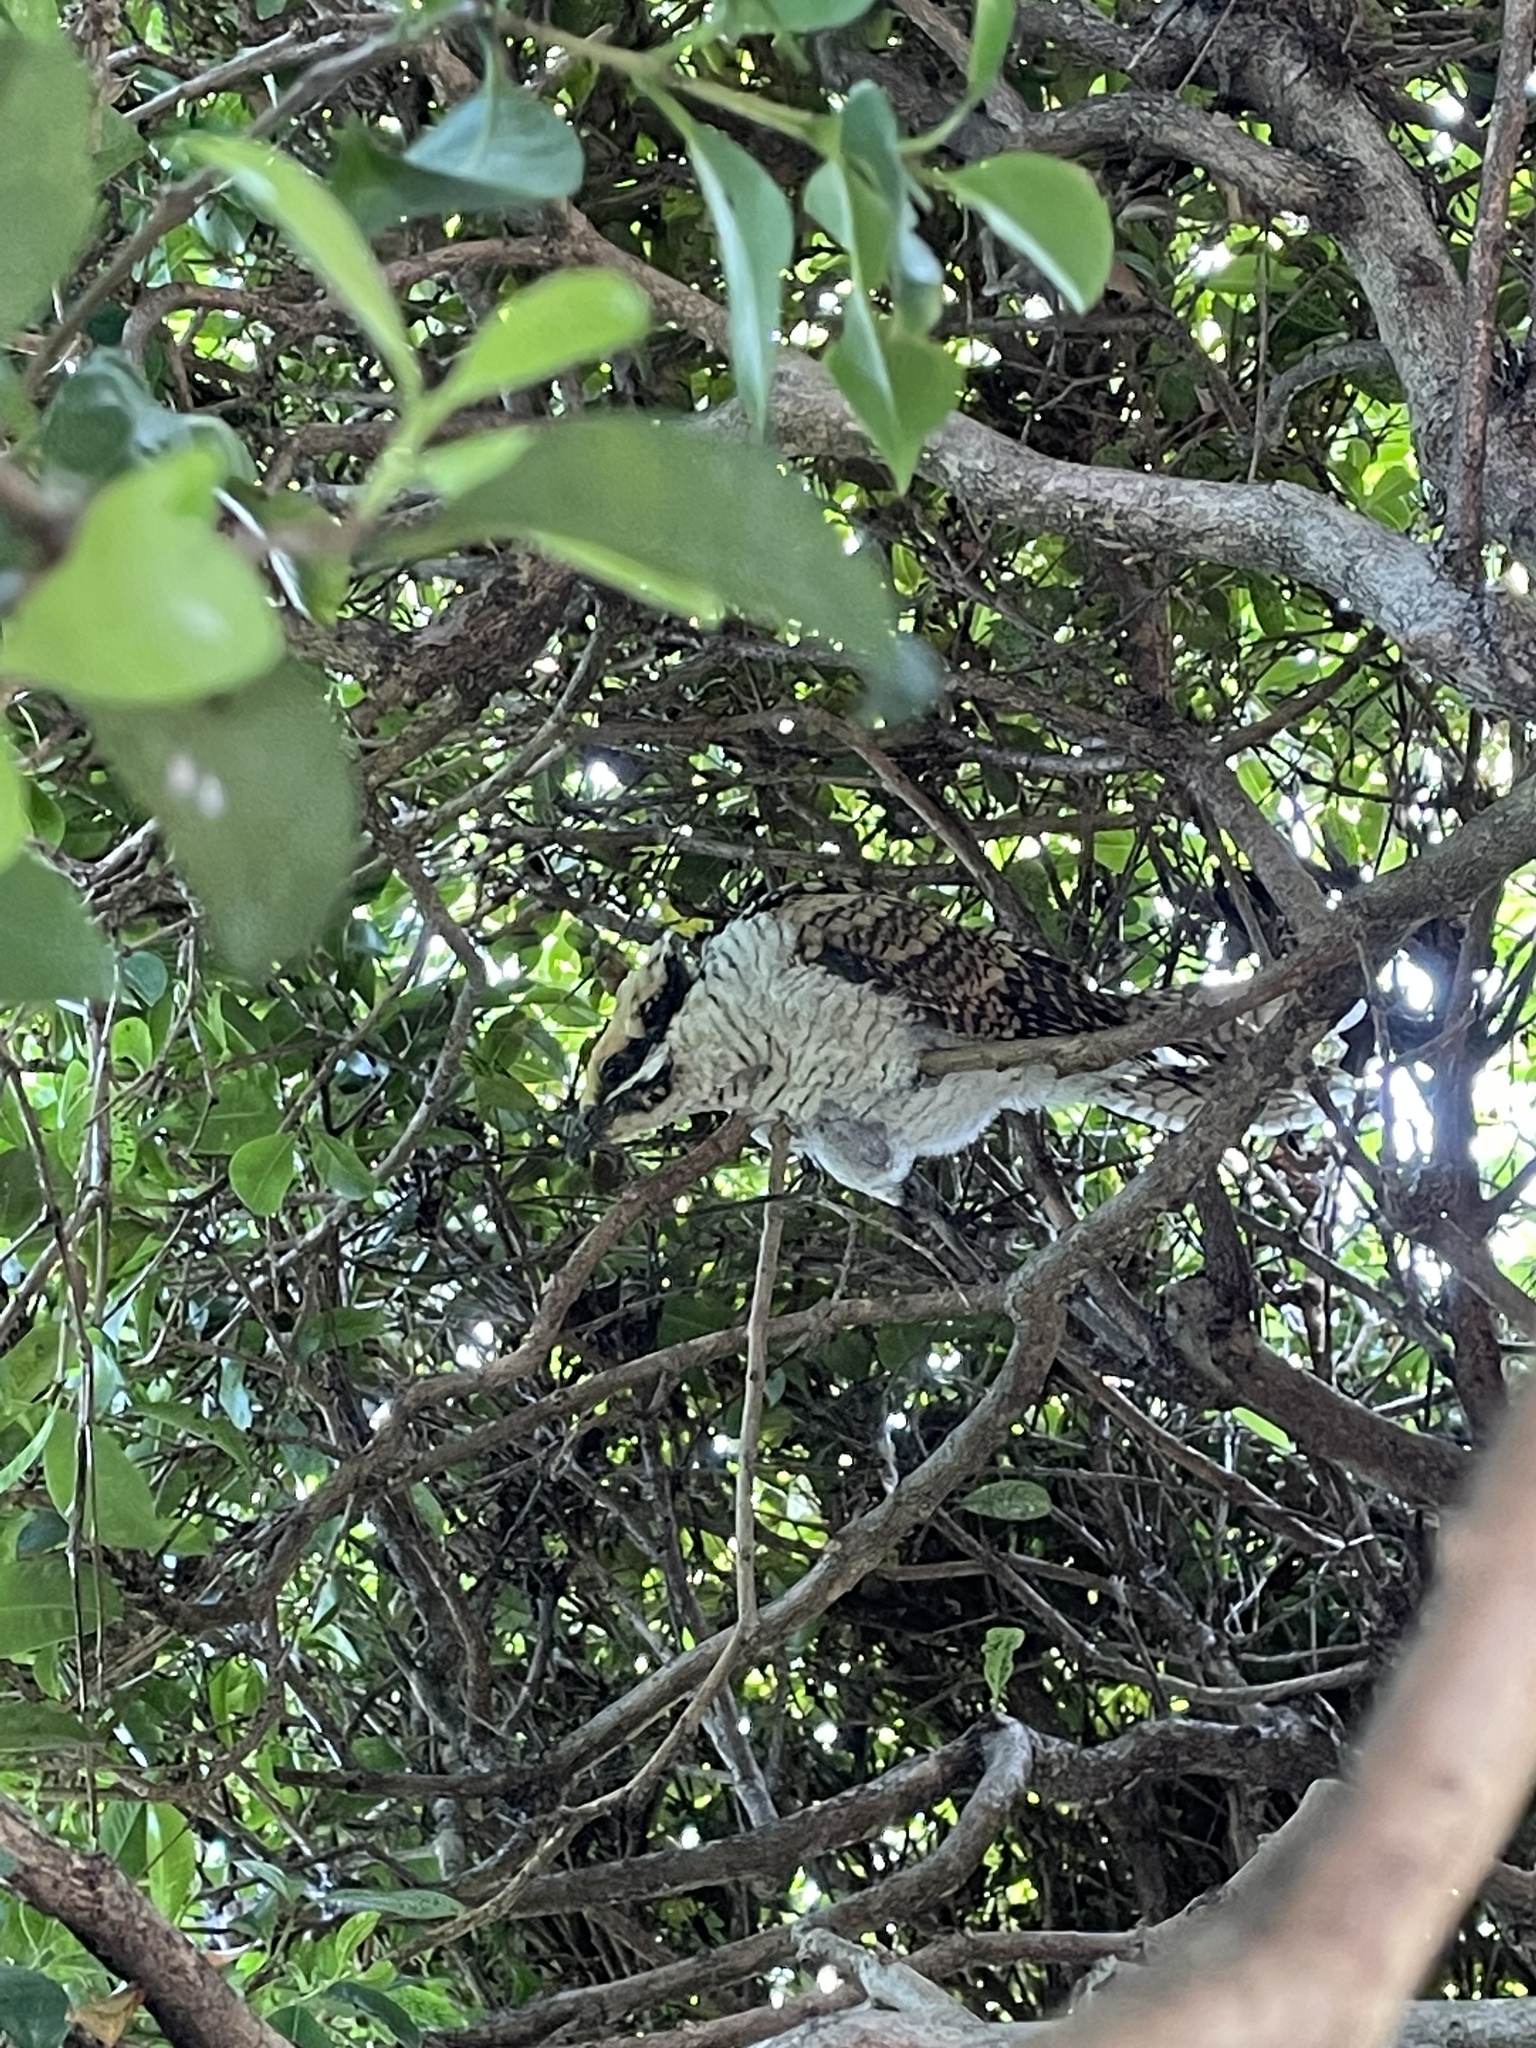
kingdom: Animalia
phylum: Chordata
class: Aves
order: Cuculiformes
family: Cuculidae
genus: Eudynamys
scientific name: Eudynamys orientalis
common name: Pacific koel
